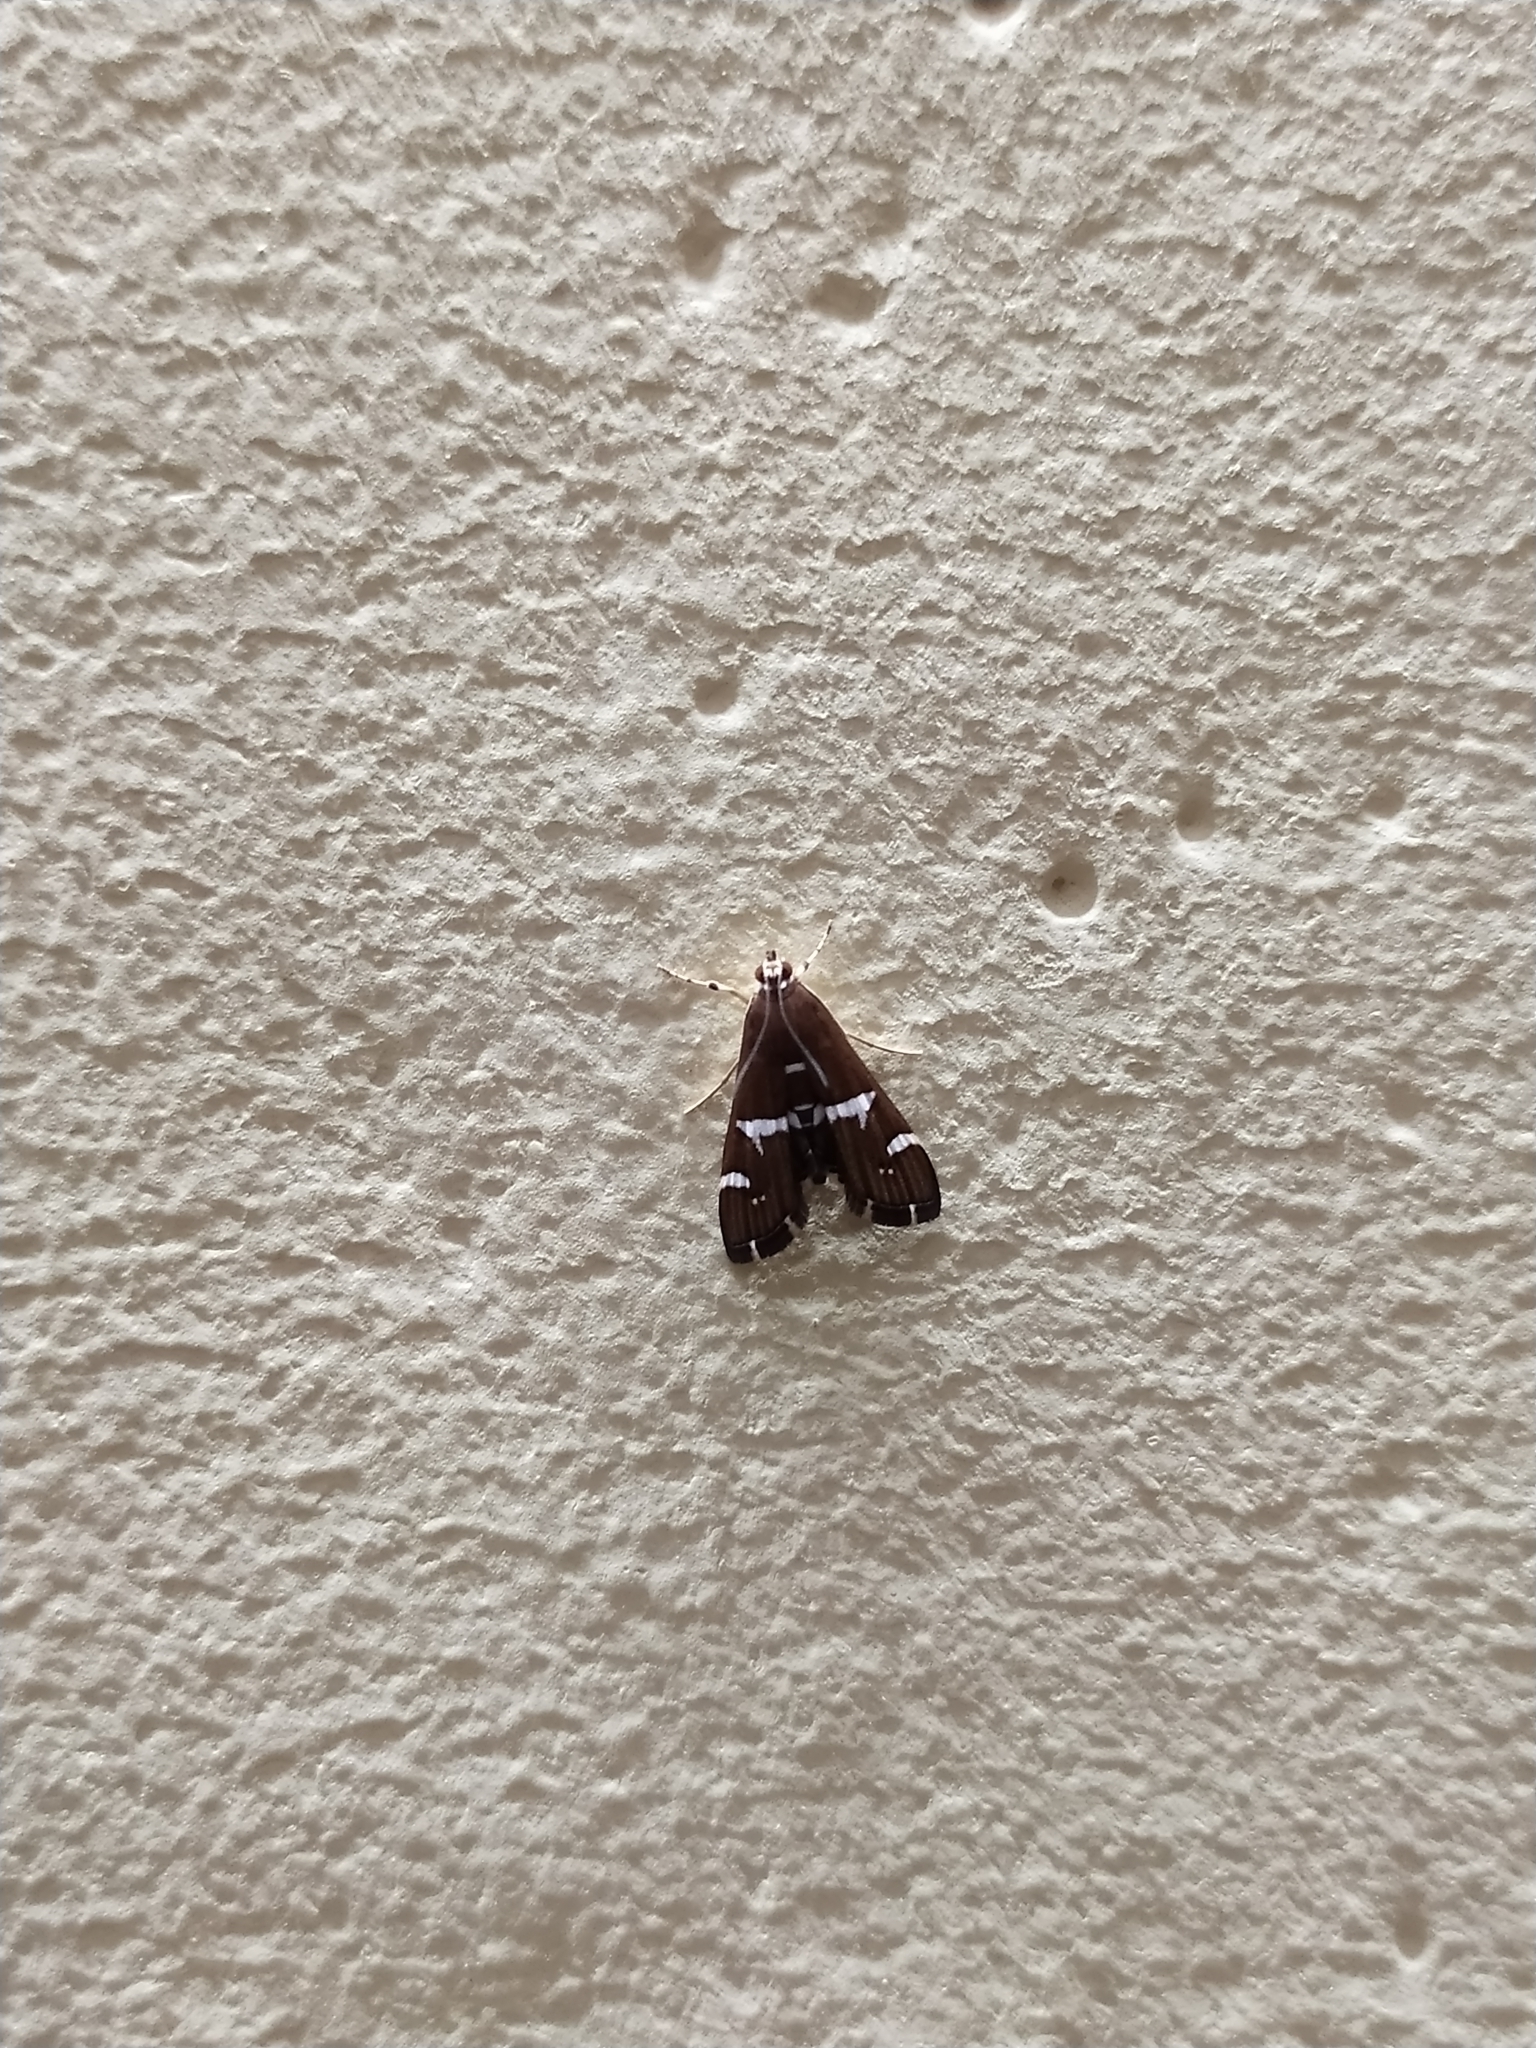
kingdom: Animalia
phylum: Arthropoda
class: Insecta
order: Lepidoptera
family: Crambidae
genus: Spoladea
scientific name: Spoladea recurvalis
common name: Beet webworm moth
